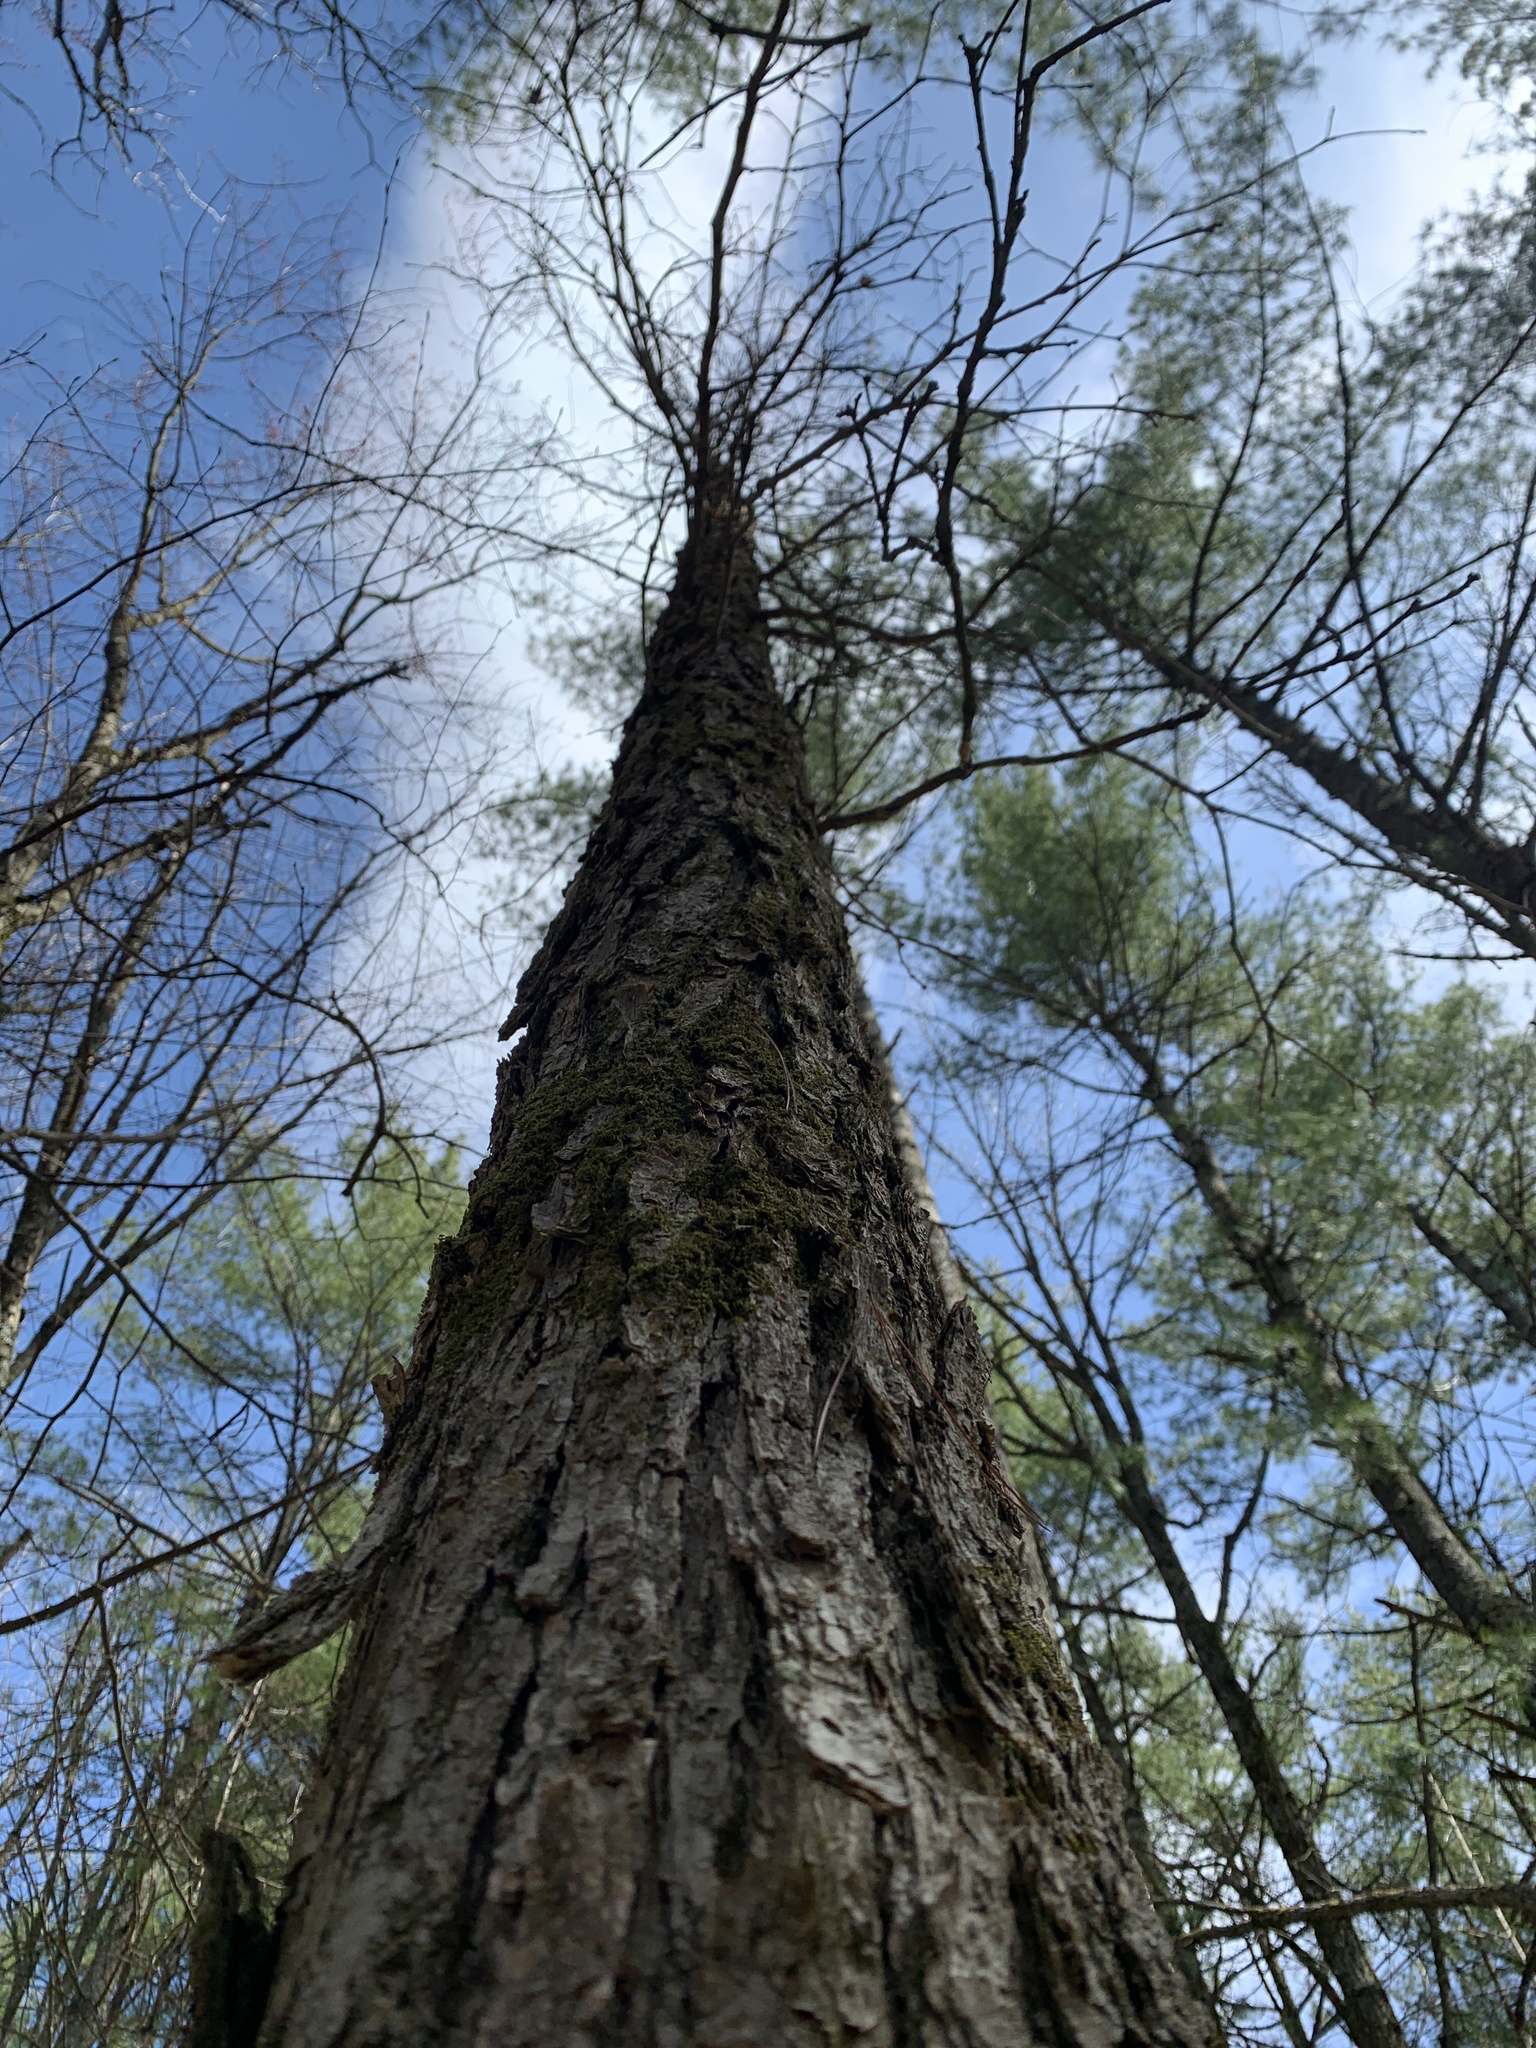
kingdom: Plantae
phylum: Tracheophyta
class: Magnoliopsida
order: Fagales
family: Fagaceae
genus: Quercus
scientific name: Quercus macrocarpa
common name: Bur oak
